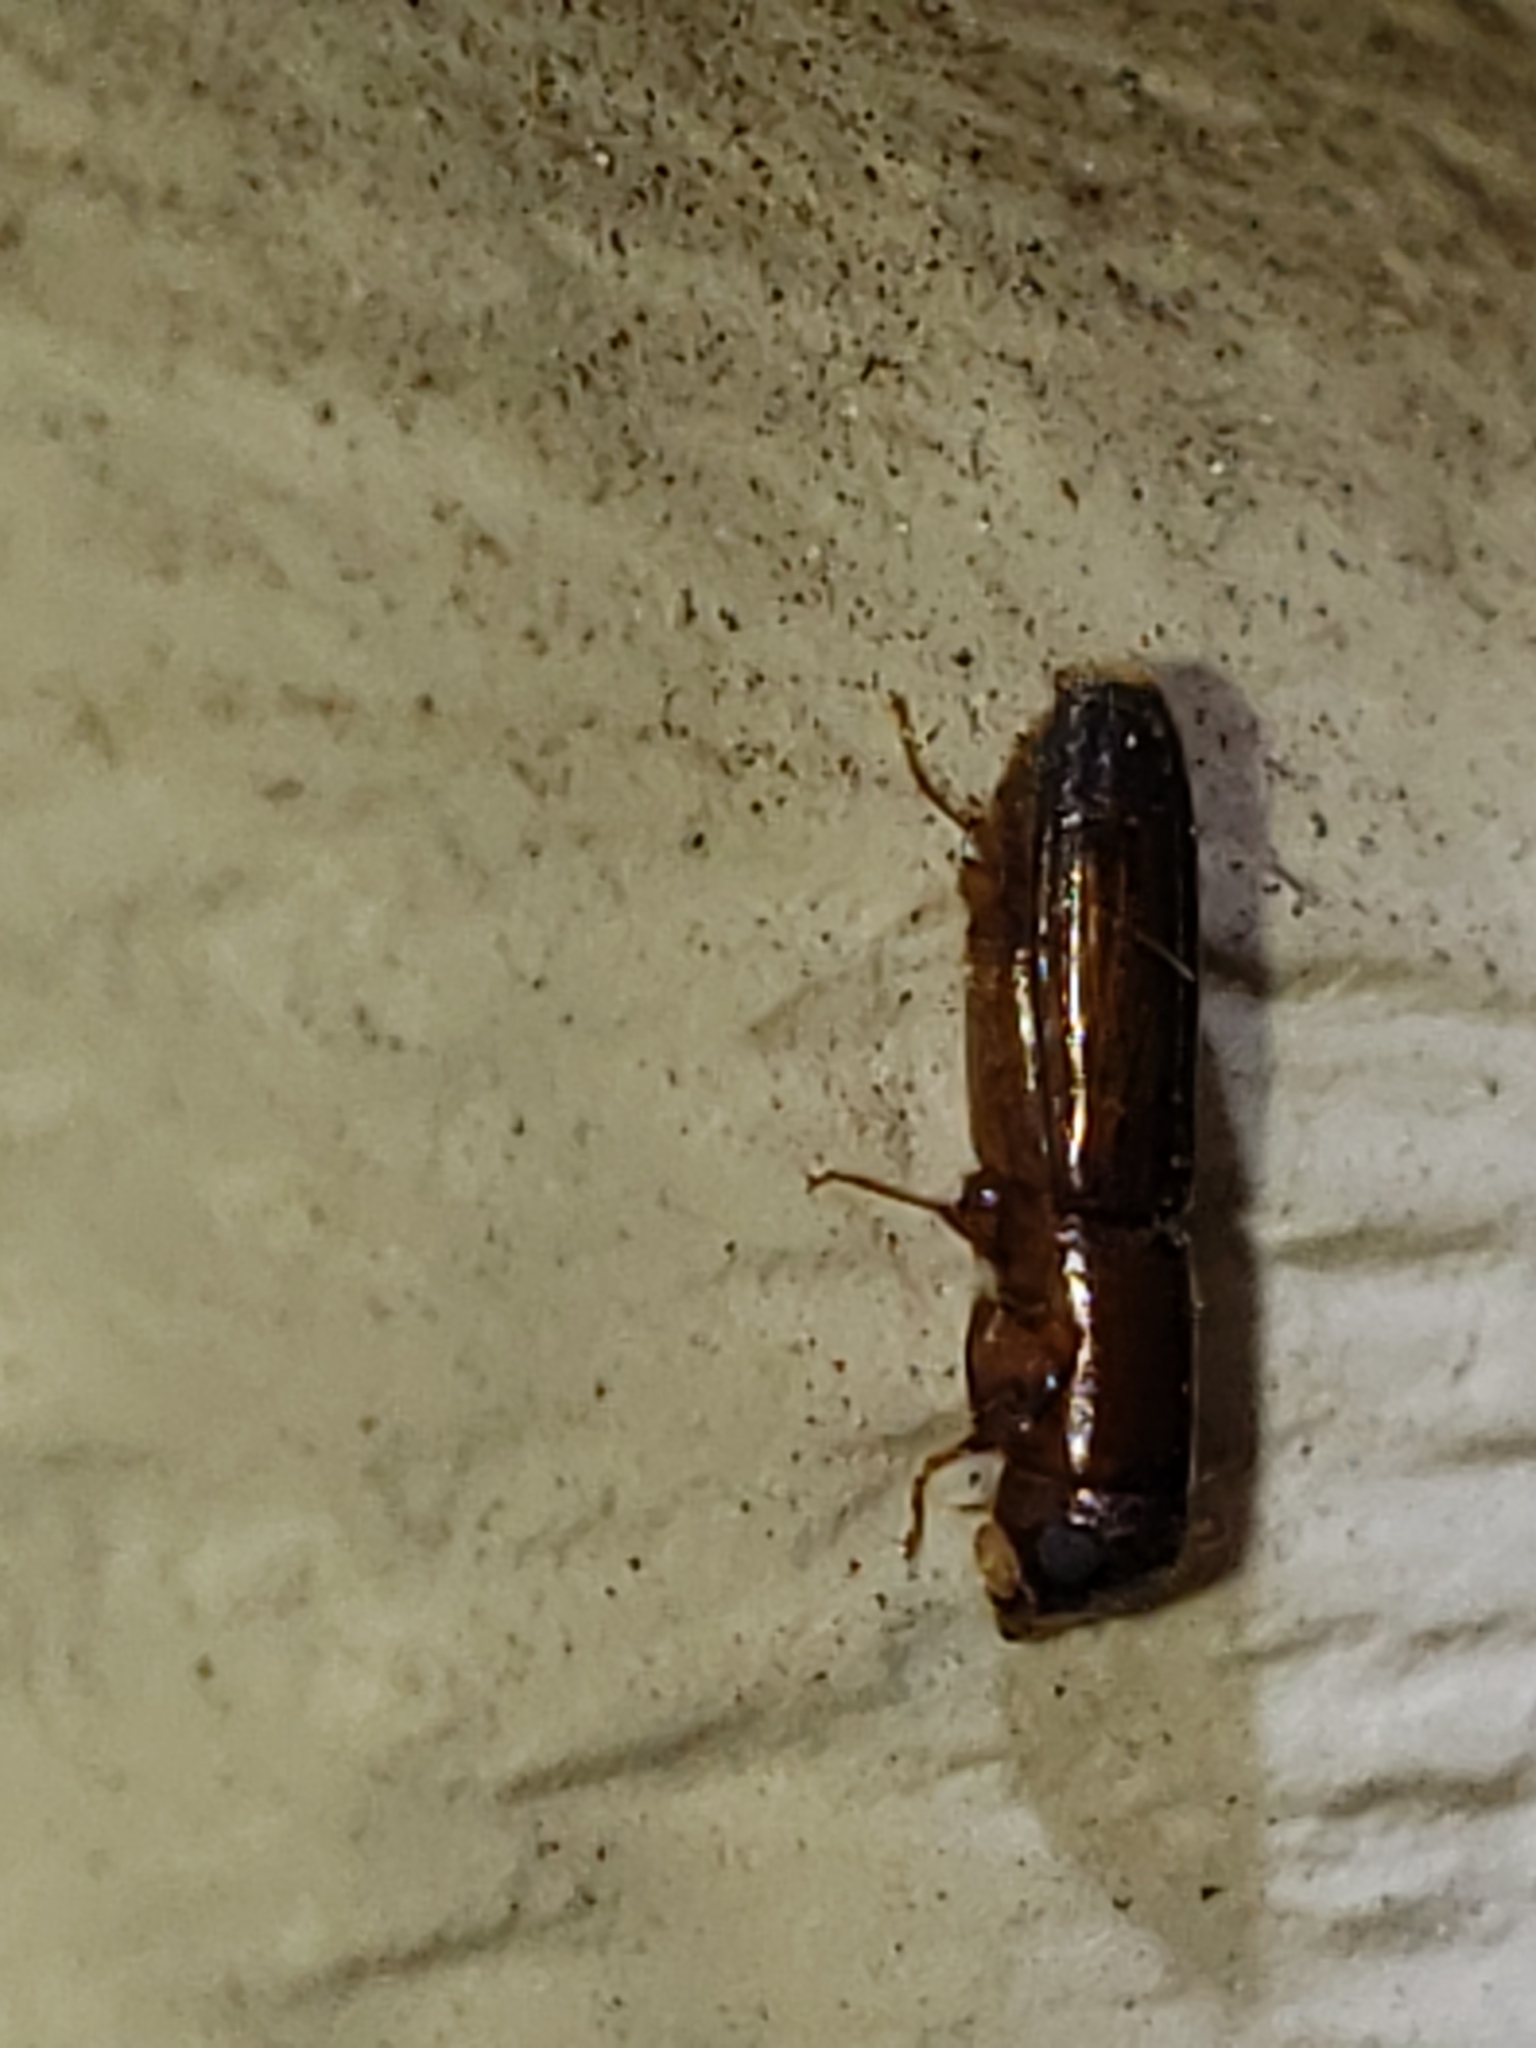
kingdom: Animalia
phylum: Arthropoda
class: Insecta
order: Coleoptera
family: Curculionidae
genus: Euplatypus
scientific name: Euplatypus compositus
